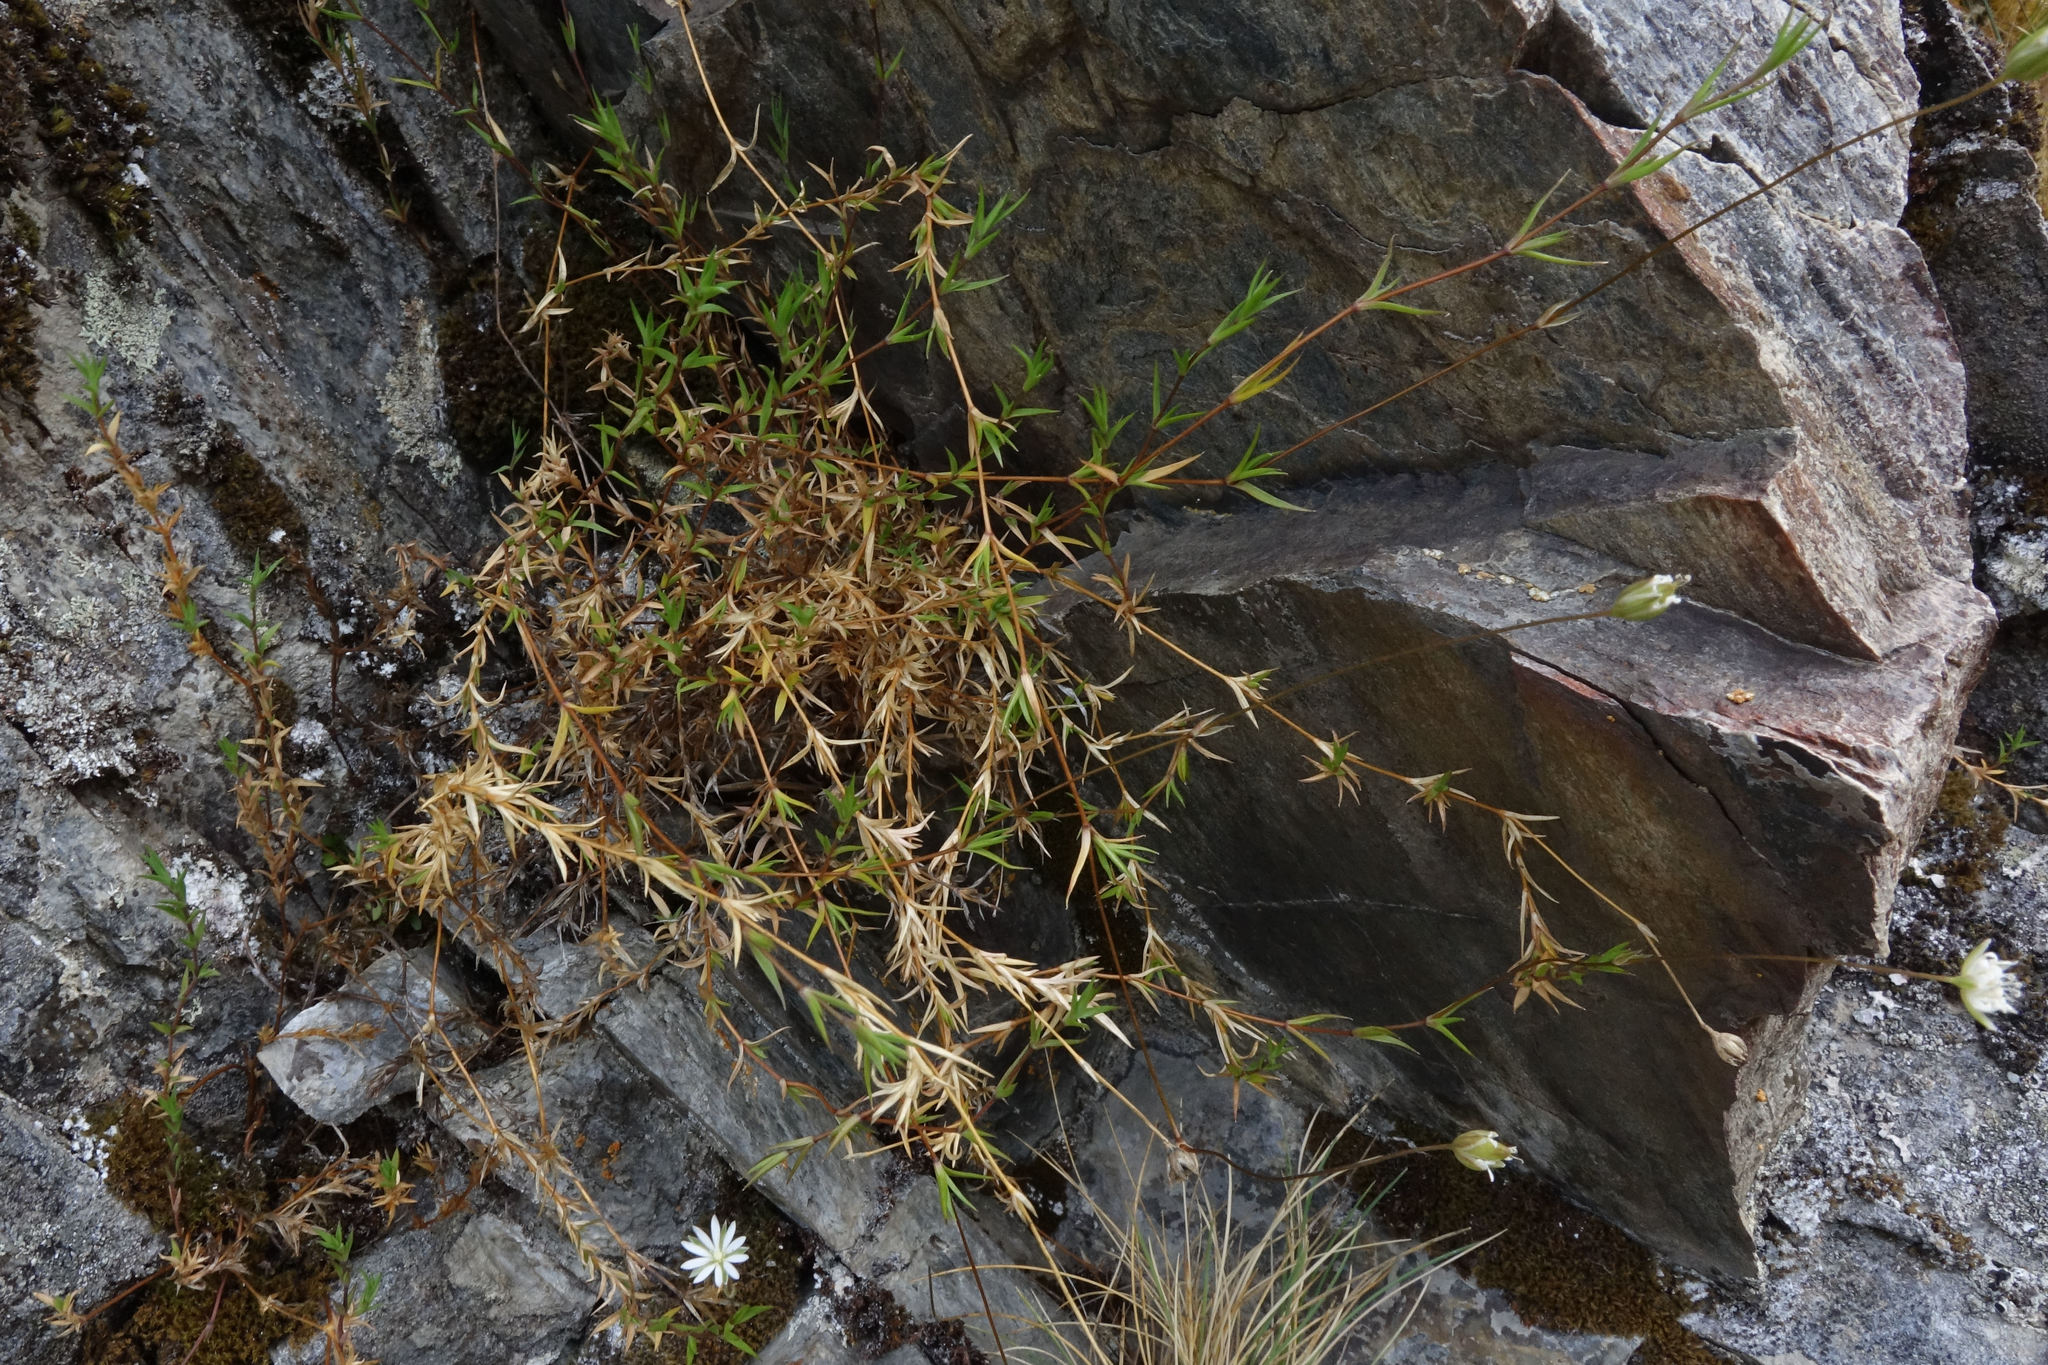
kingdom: Plantae
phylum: Tracheophyta
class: Magnoliopsida
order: Caryophyllales
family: Caryophyllaceae
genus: Stellaria
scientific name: Stellaria gracilenta
